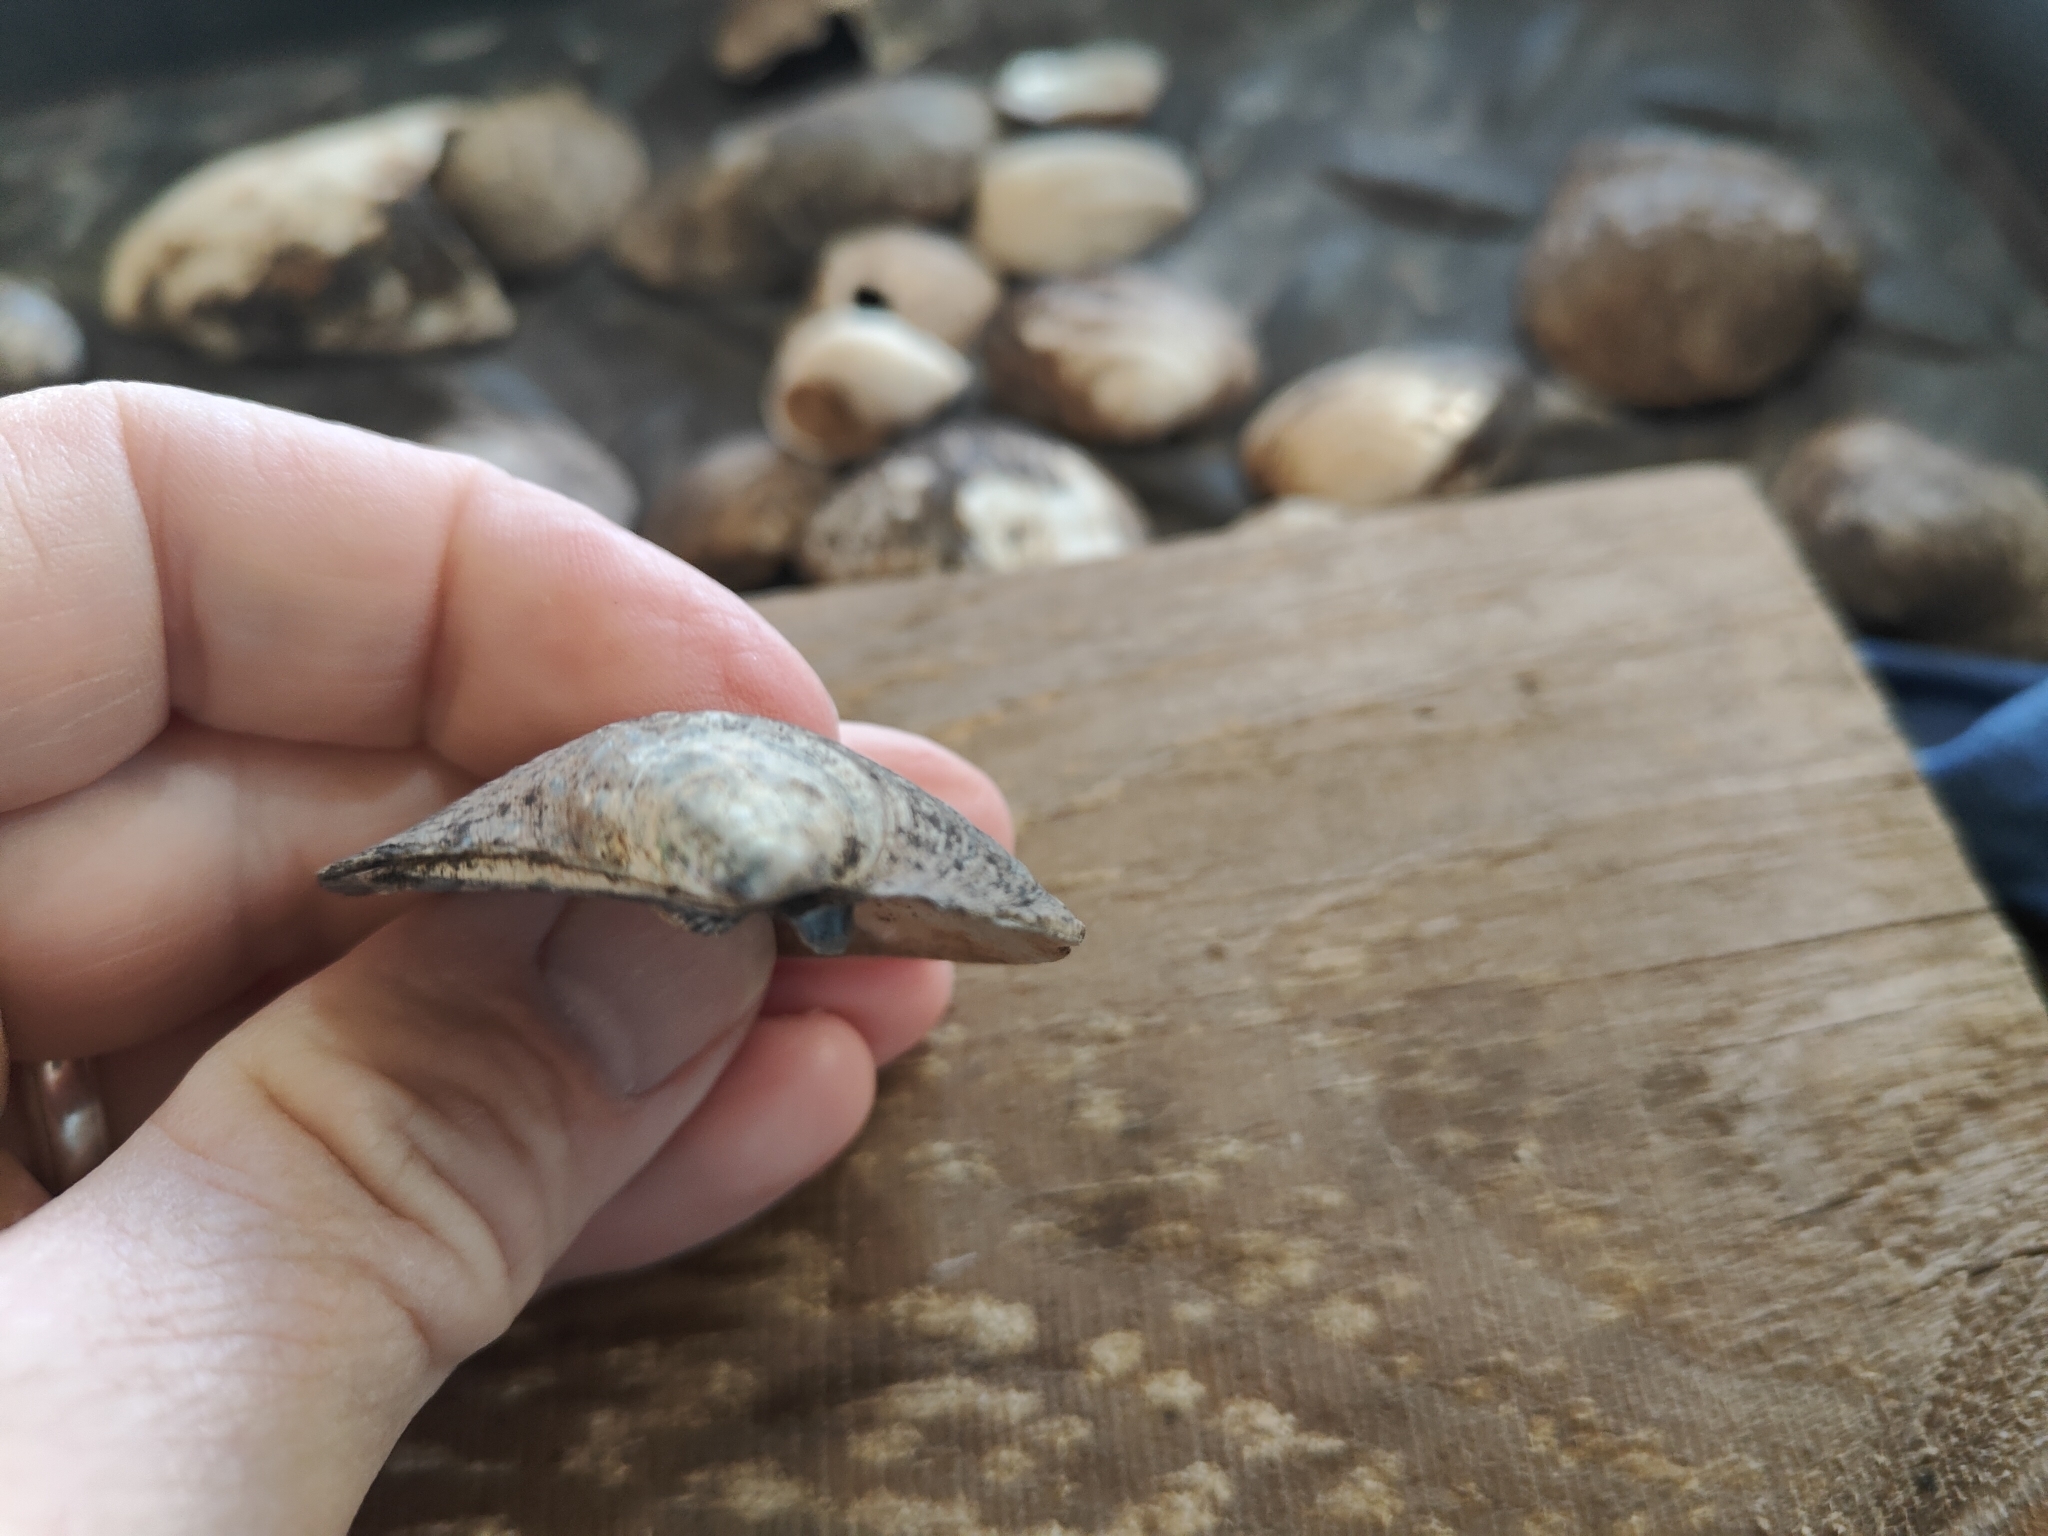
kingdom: Animalia
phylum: Mollusca
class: Bivalvia
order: Unionida
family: Unionidae
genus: Amblema
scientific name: Amblema plicata
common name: Threeridge
